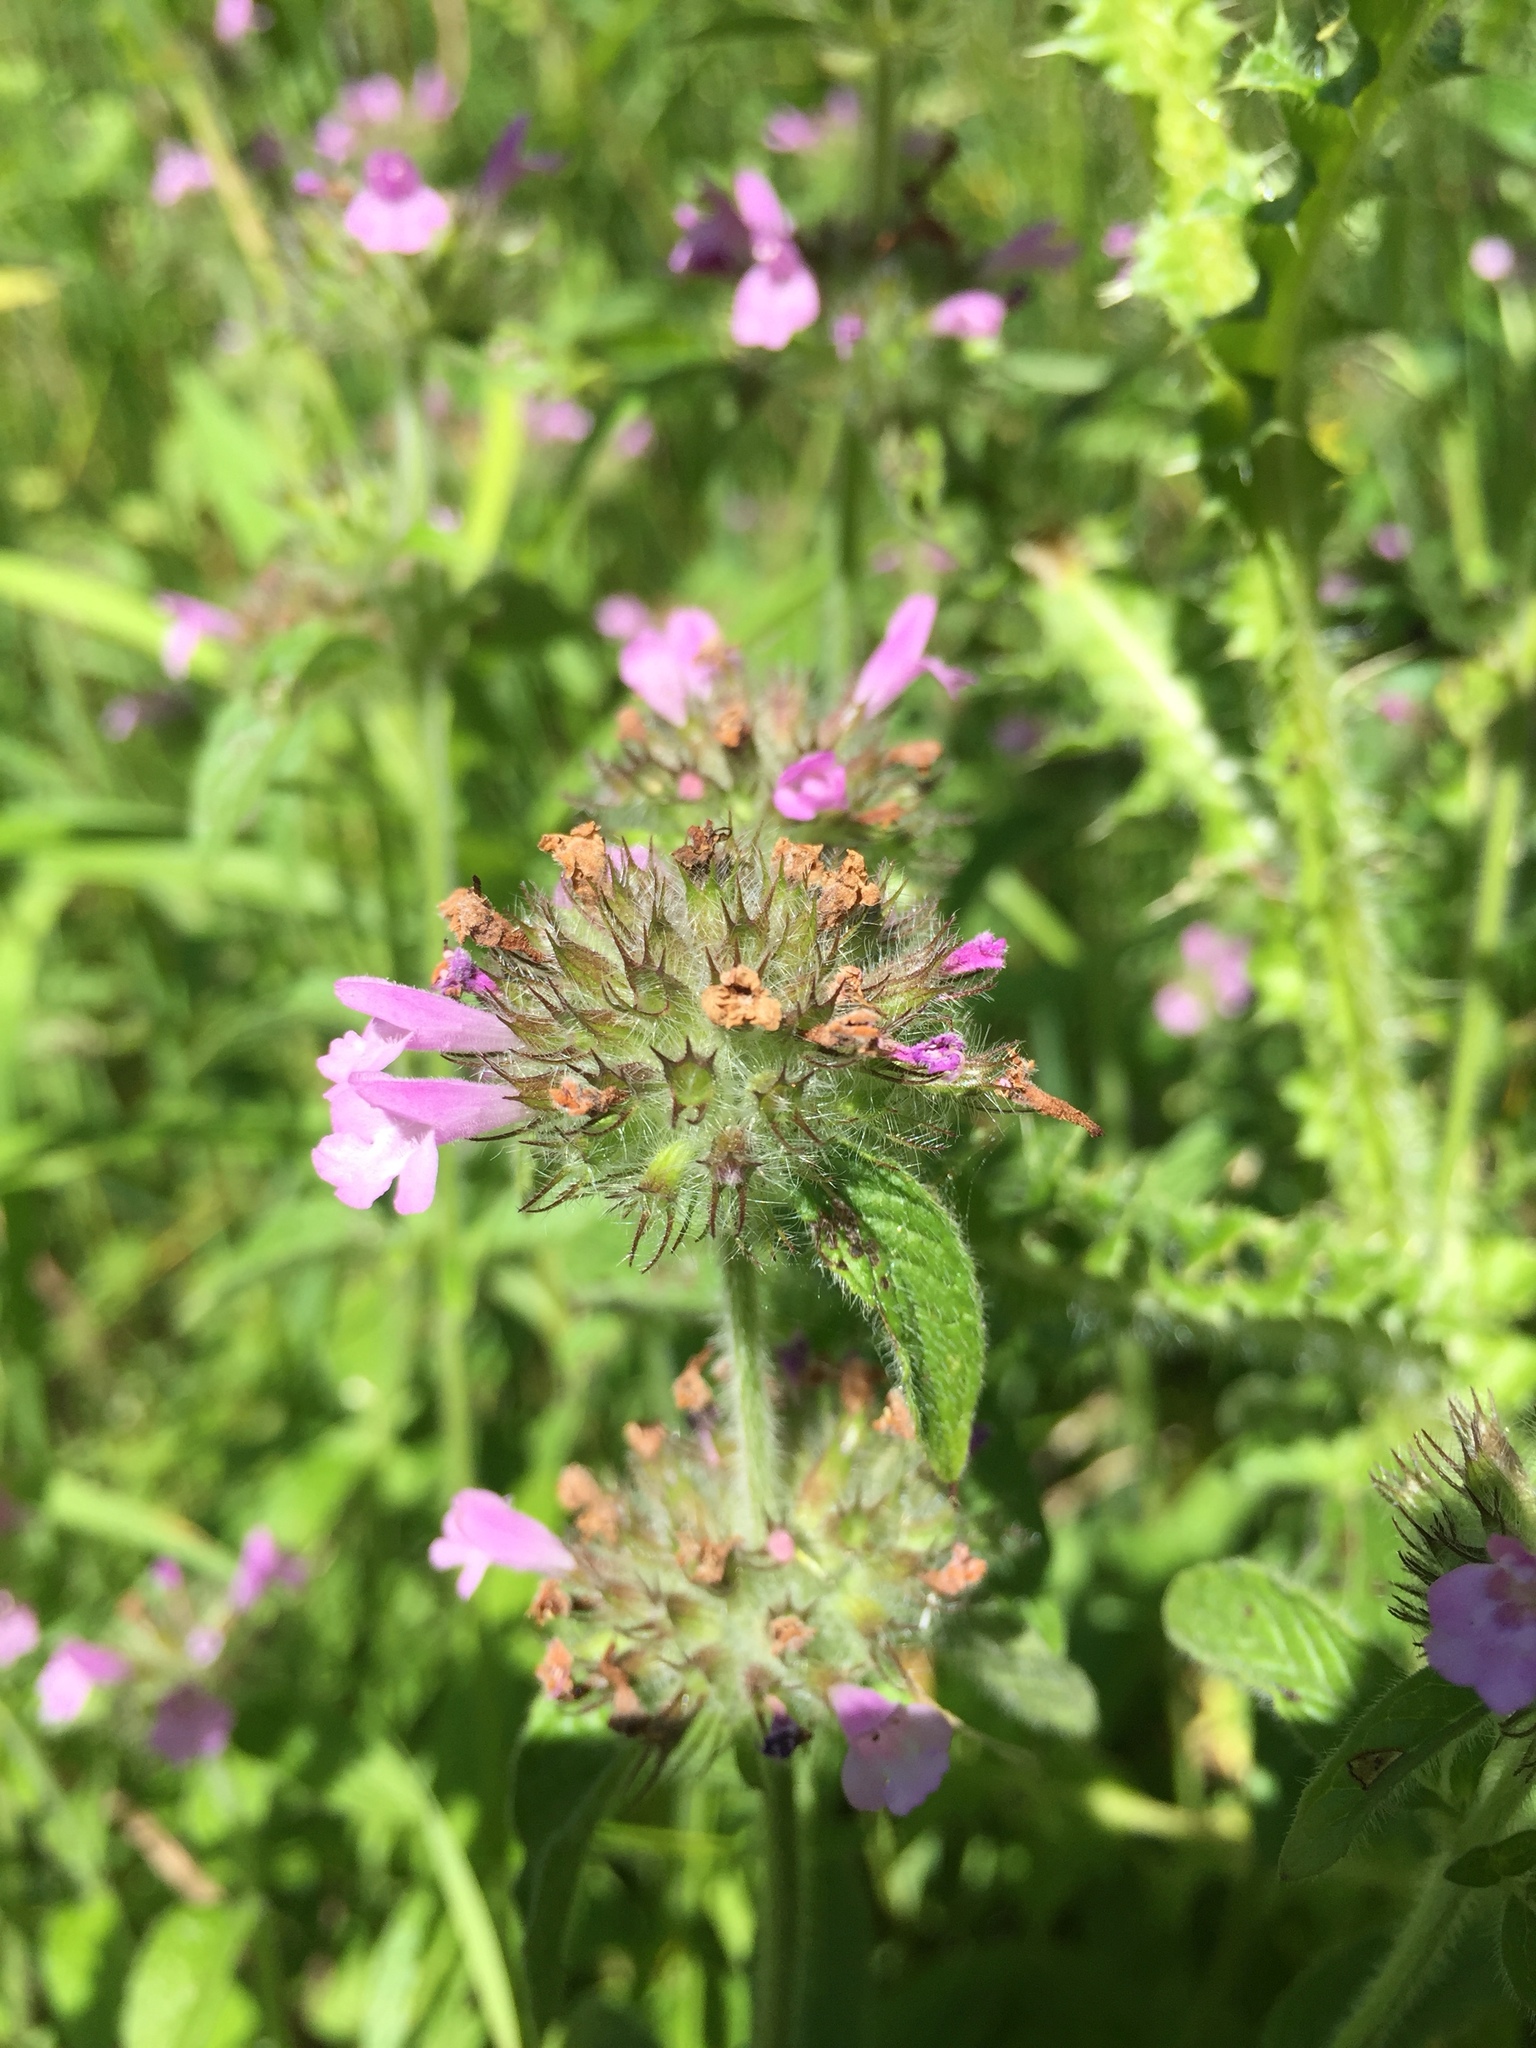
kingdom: Plantae
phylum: Tracheophyta
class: Magnoliopsida
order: Lamiales
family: Lamiaceae
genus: Clinopodium
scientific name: Clinopodium vulgare
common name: Wild basil
